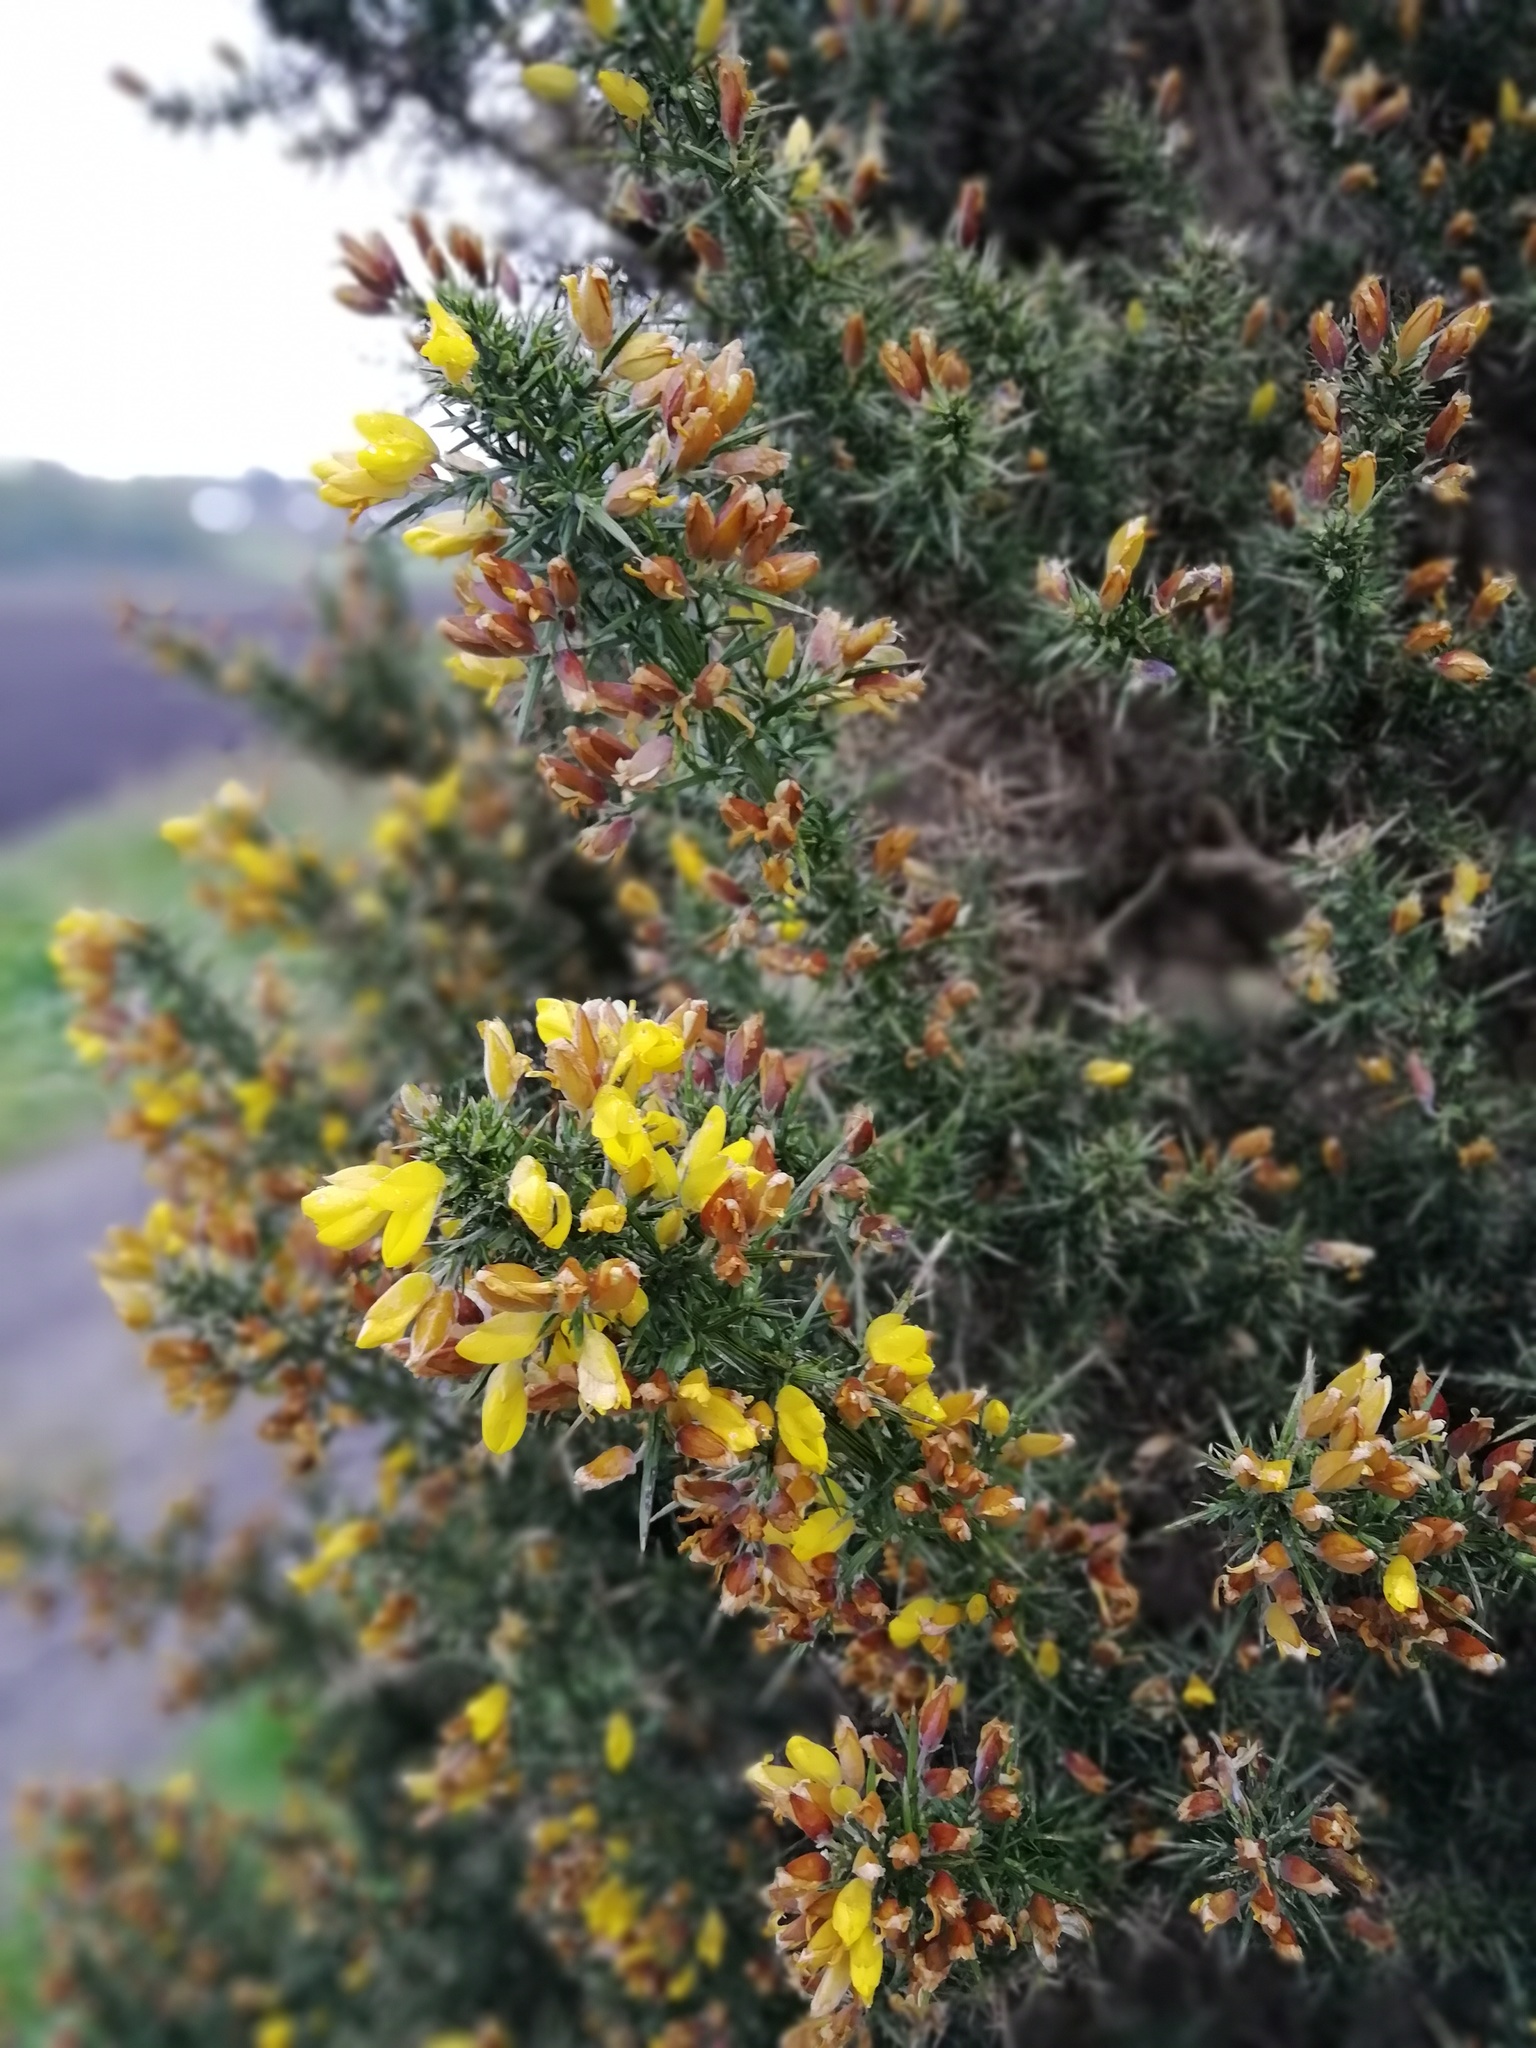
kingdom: Plantae
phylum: Tracheophyta
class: Magnoliopsida
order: Fabales
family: Fabaceae
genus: Ulex
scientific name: Ulex europaeus
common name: Common gorse
